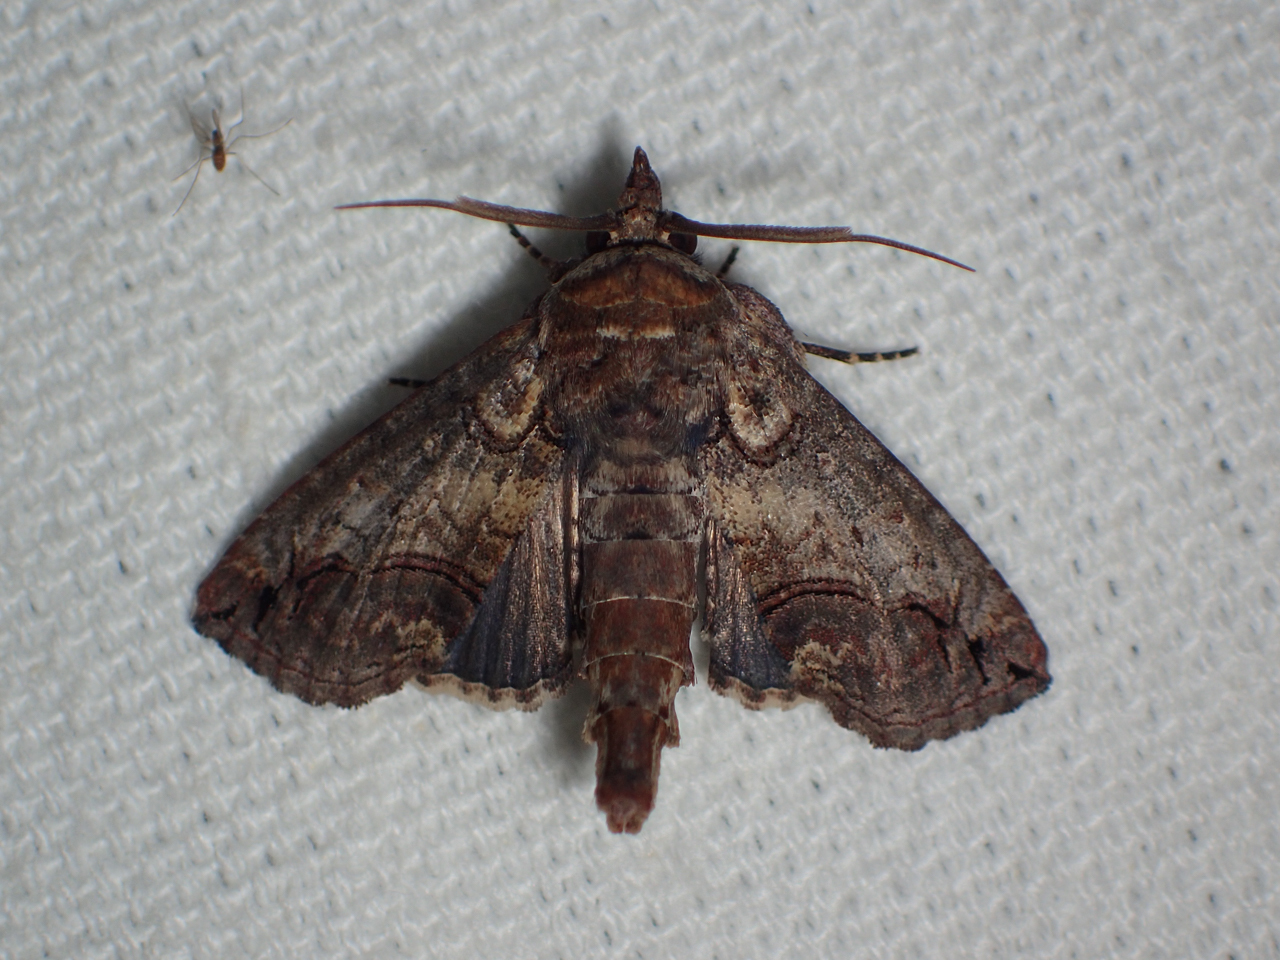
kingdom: Animalia
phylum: Arthropoda
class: Insecta
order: Lepidoptera
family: Euteliidae
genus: Paectes
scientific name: Paectes abrostoloides
